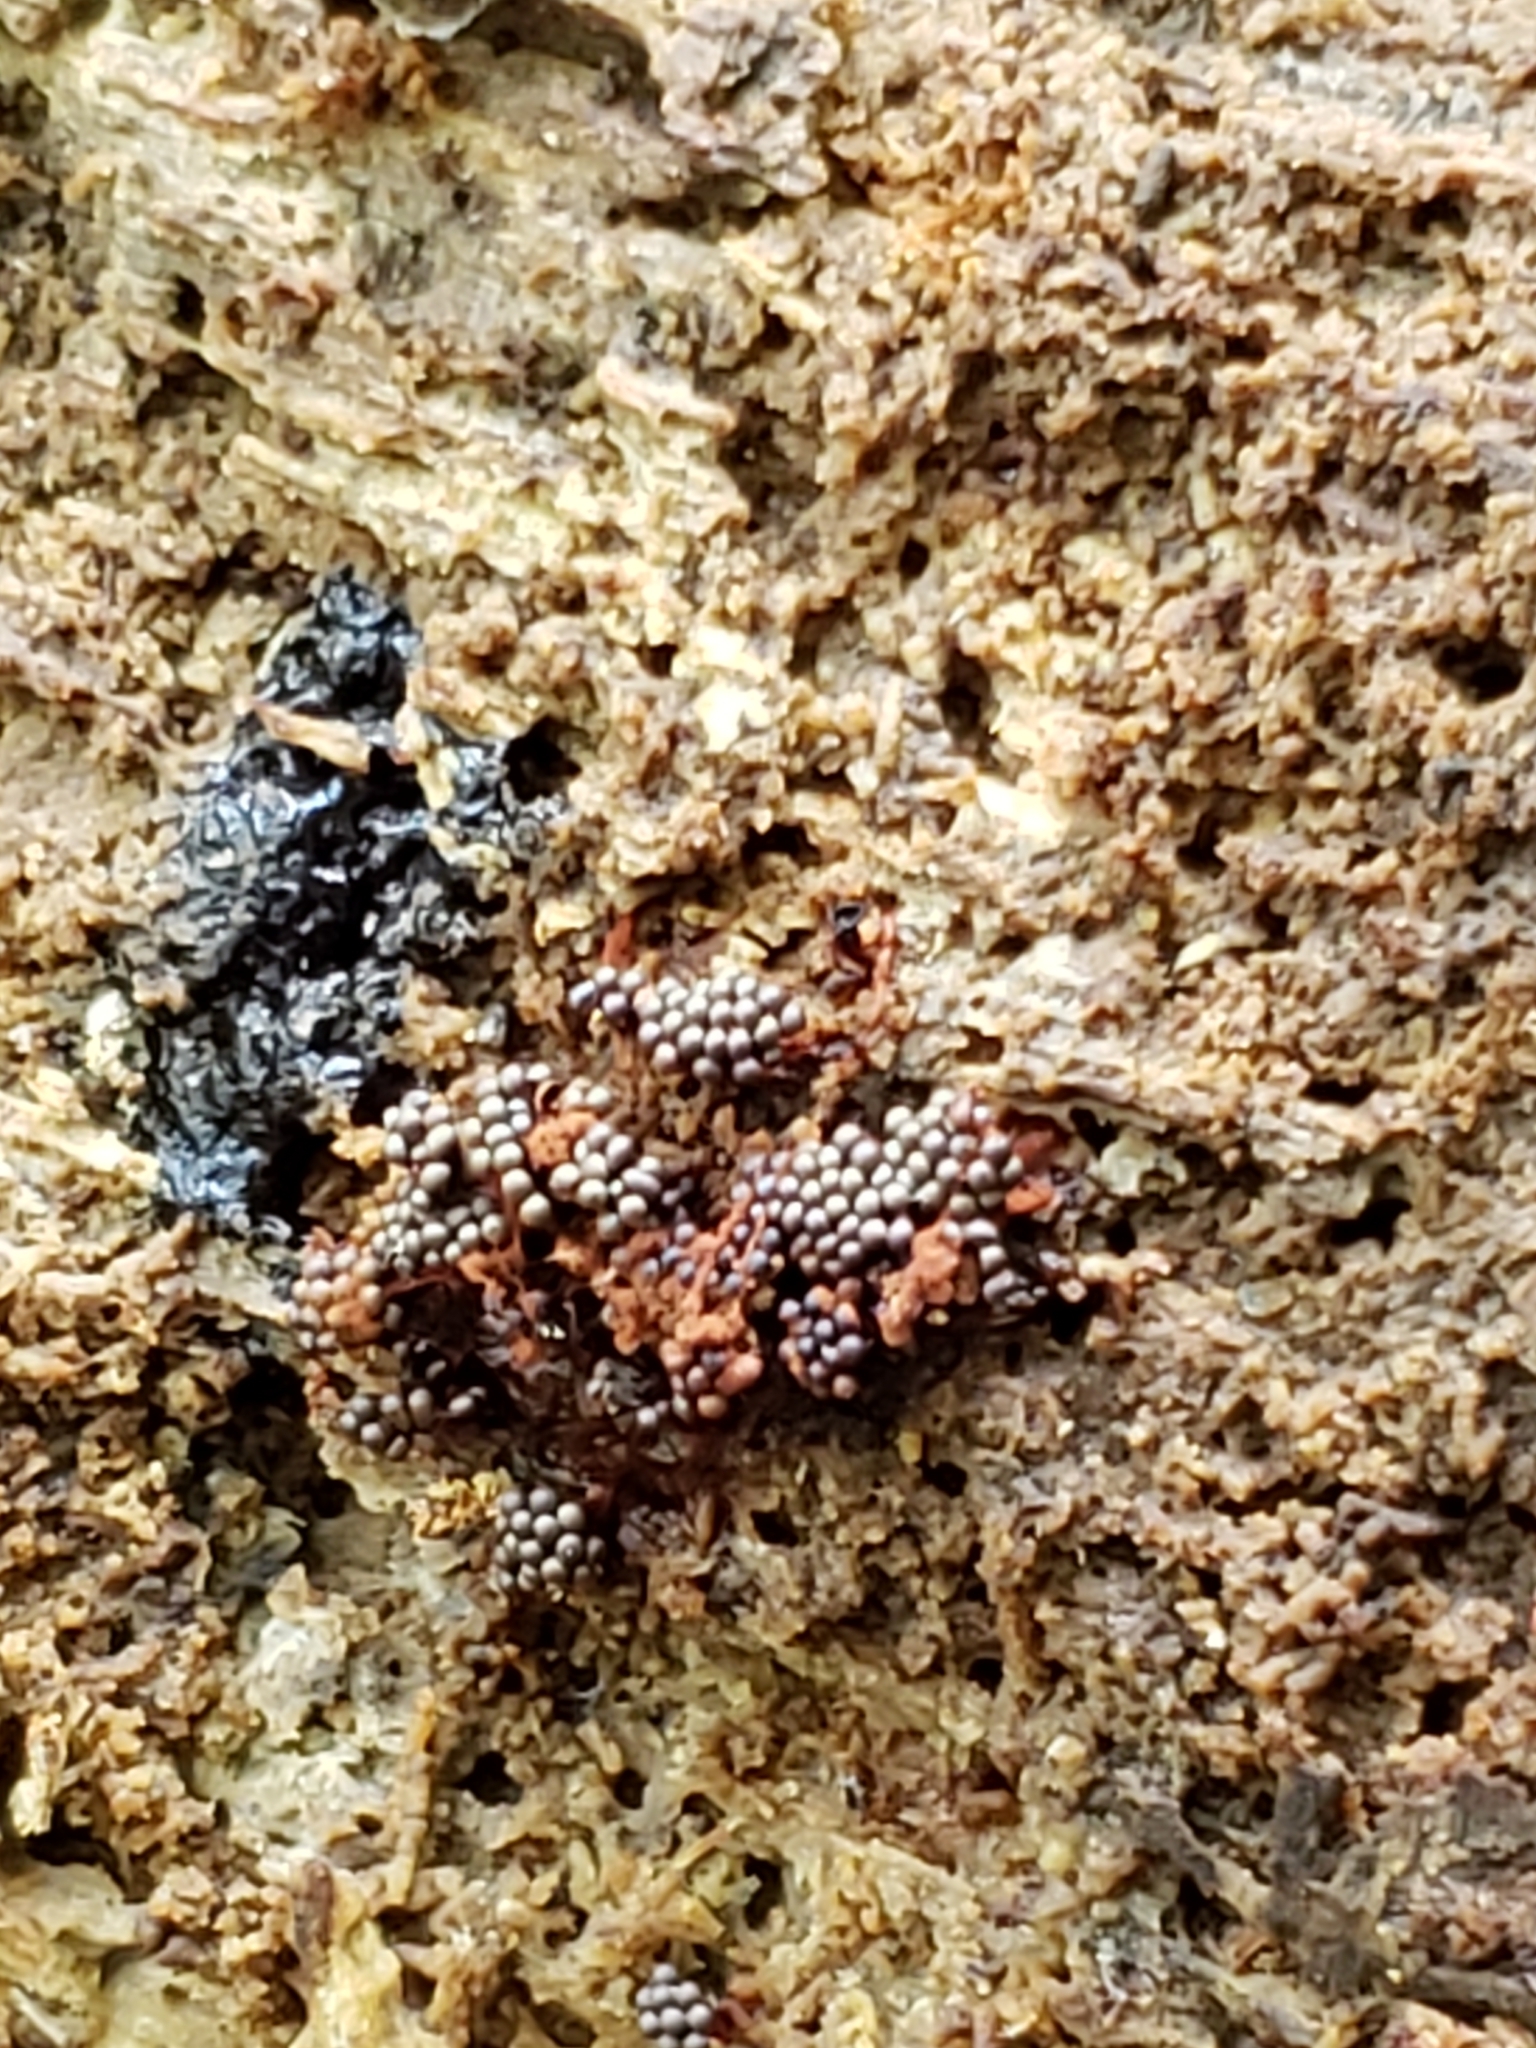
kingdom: Protozoa
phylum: Mycetozoa
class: Myxomycetes
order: Trichiales
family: Trichiaceae
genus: Metatrichia
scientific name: Metatrichia vesparia
